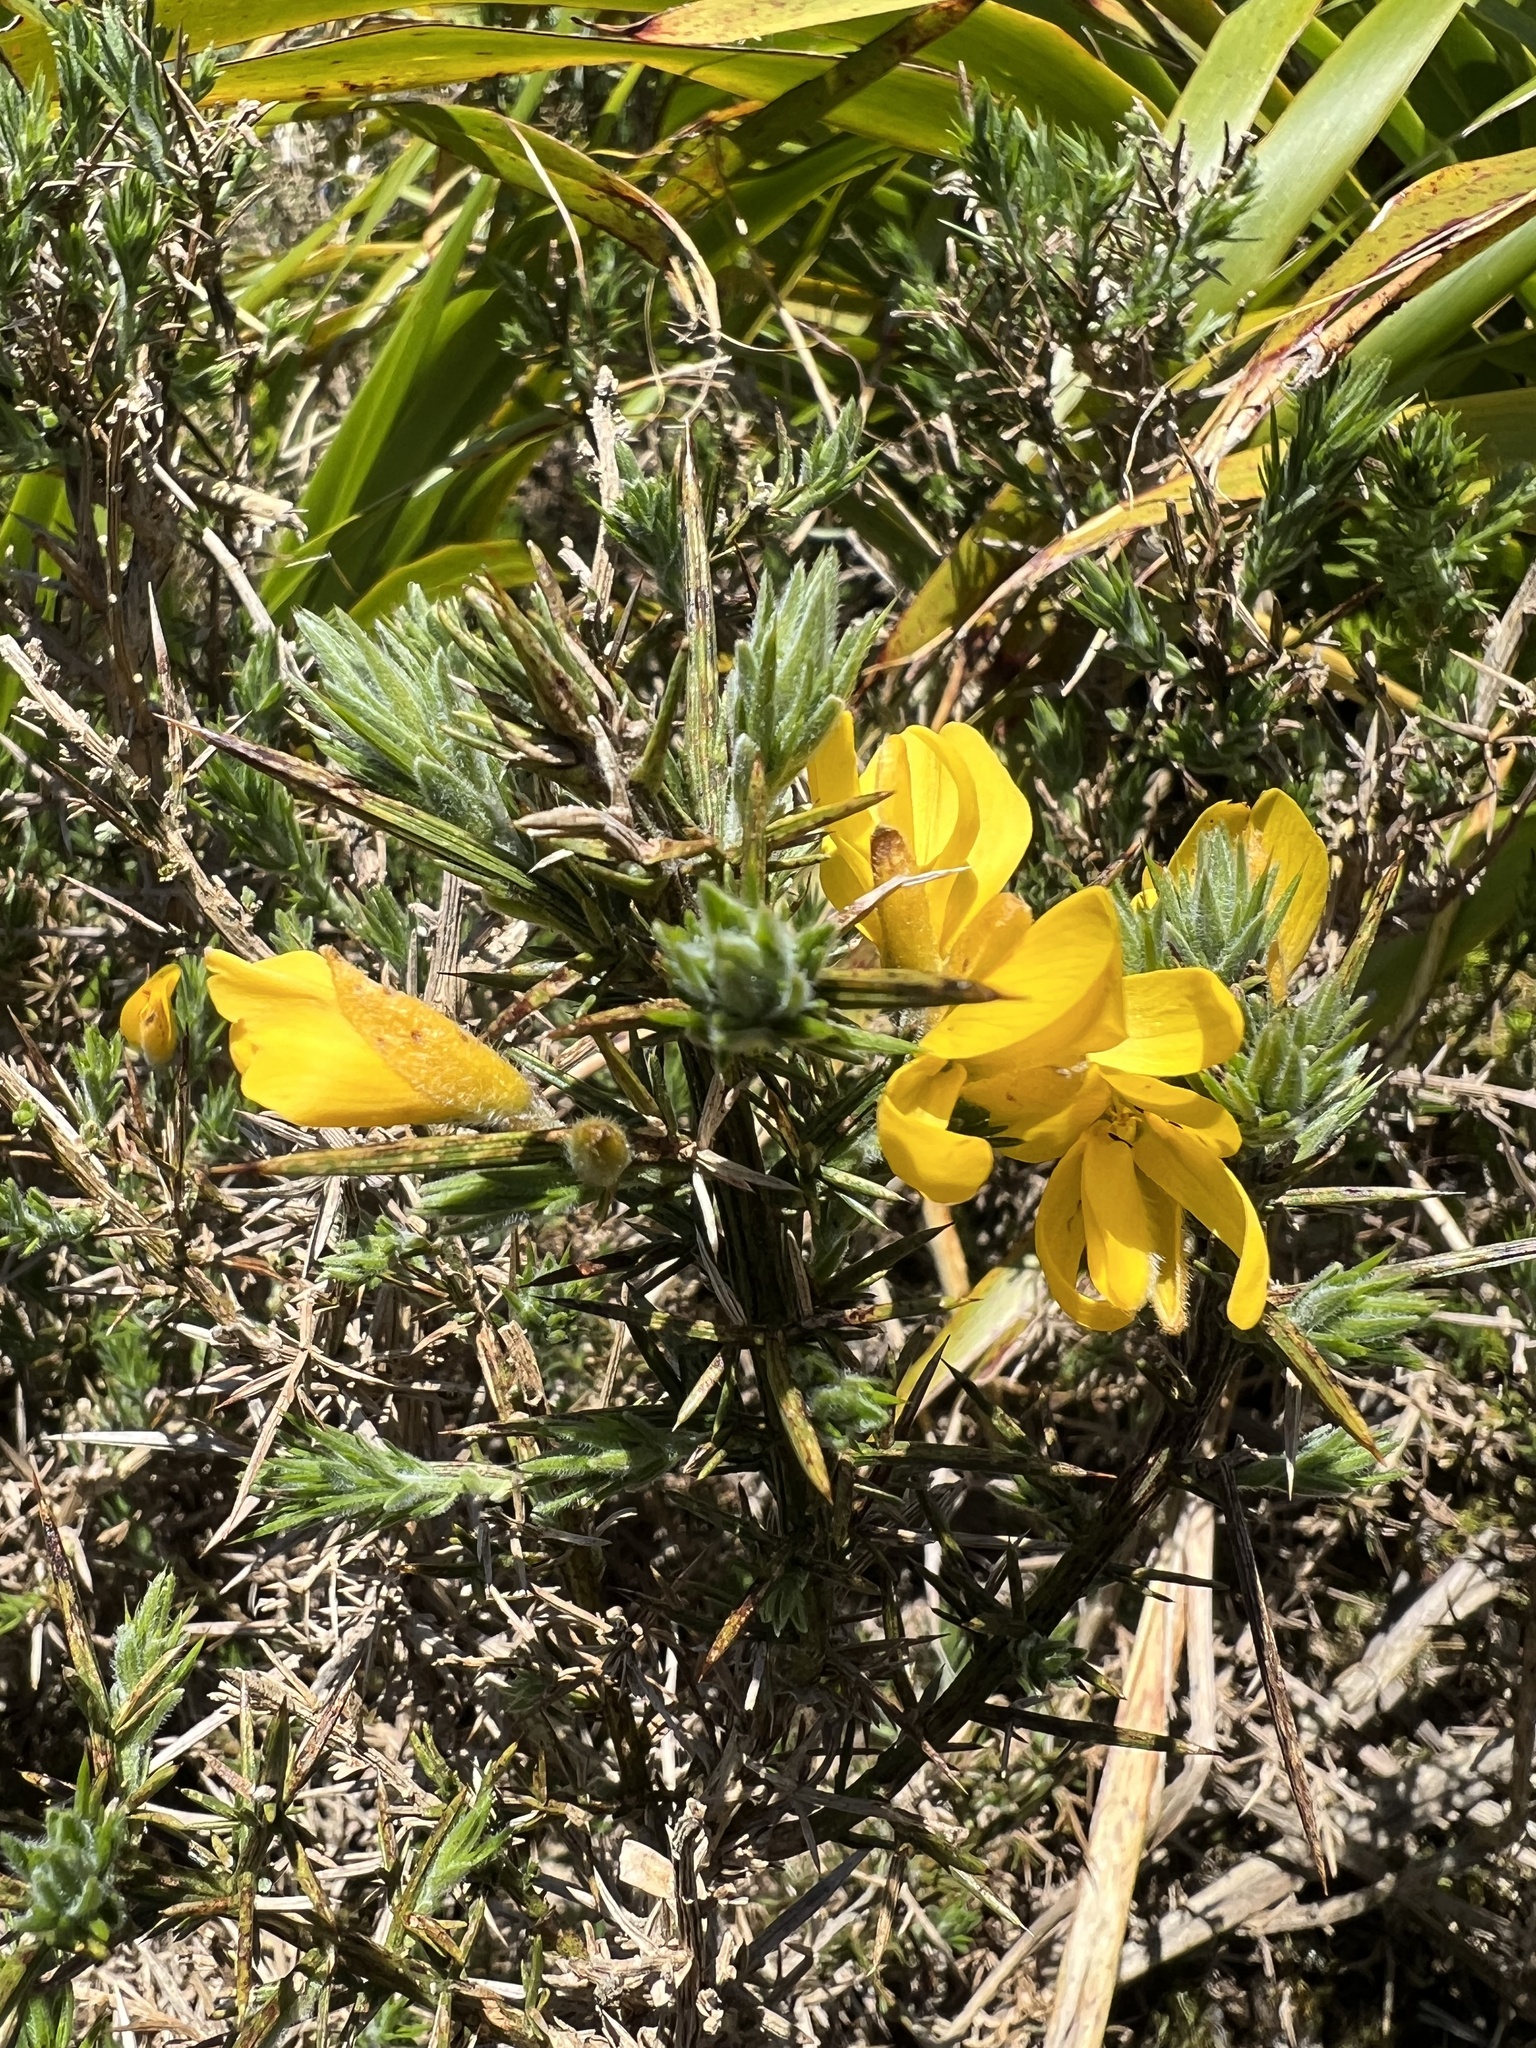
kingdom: Plantae
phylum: Tracheophyta
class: Magnoliopsida
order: Fabales
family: Fabaceae
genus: Ulex
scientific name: Ulex europaeus
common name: Common gorse
